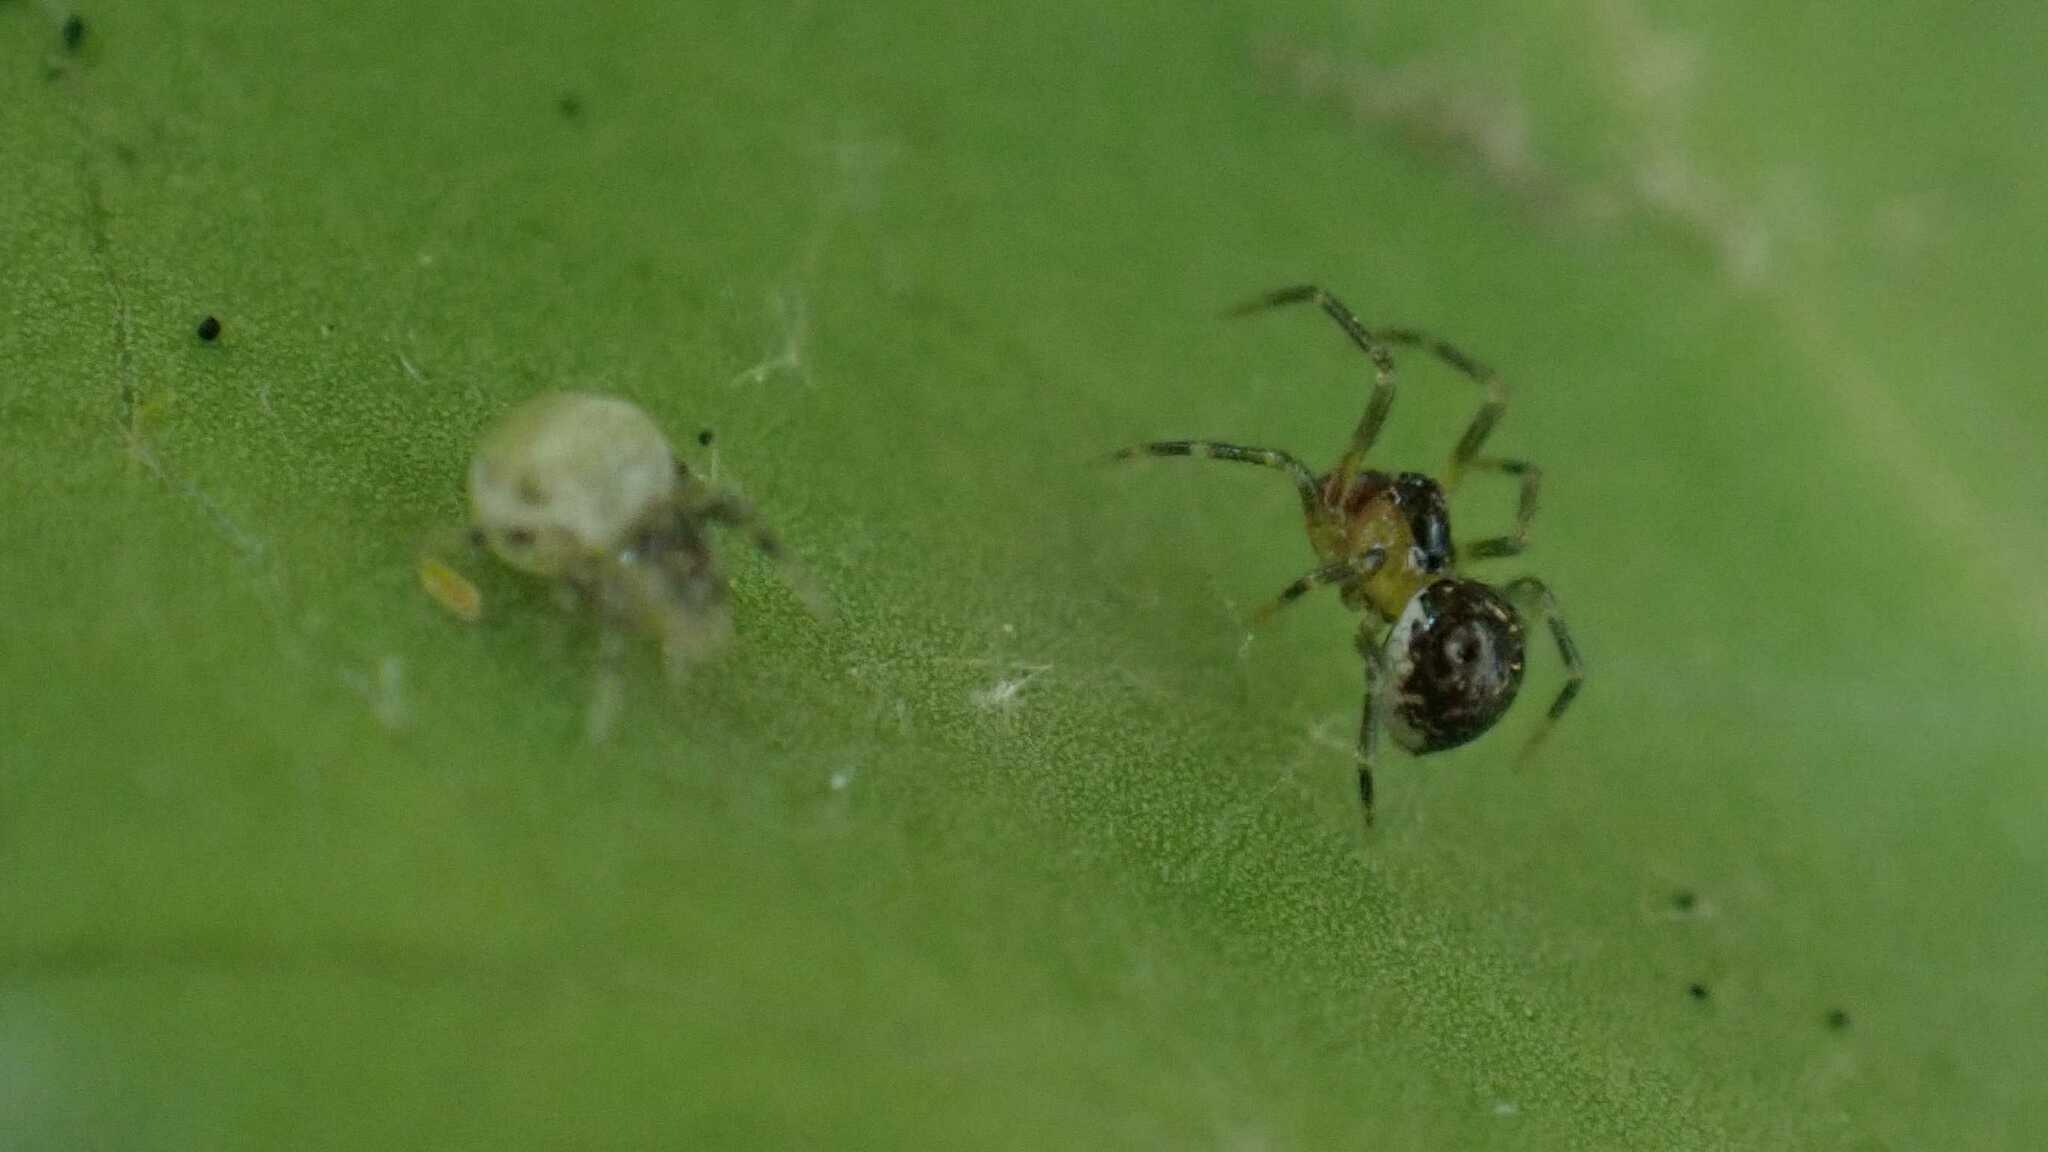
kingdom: Animalia
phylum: Arthropoda
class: Arachnida
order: Araneae
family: Theridiidae
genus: Paidiscura
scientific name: Paidiscura pallens
